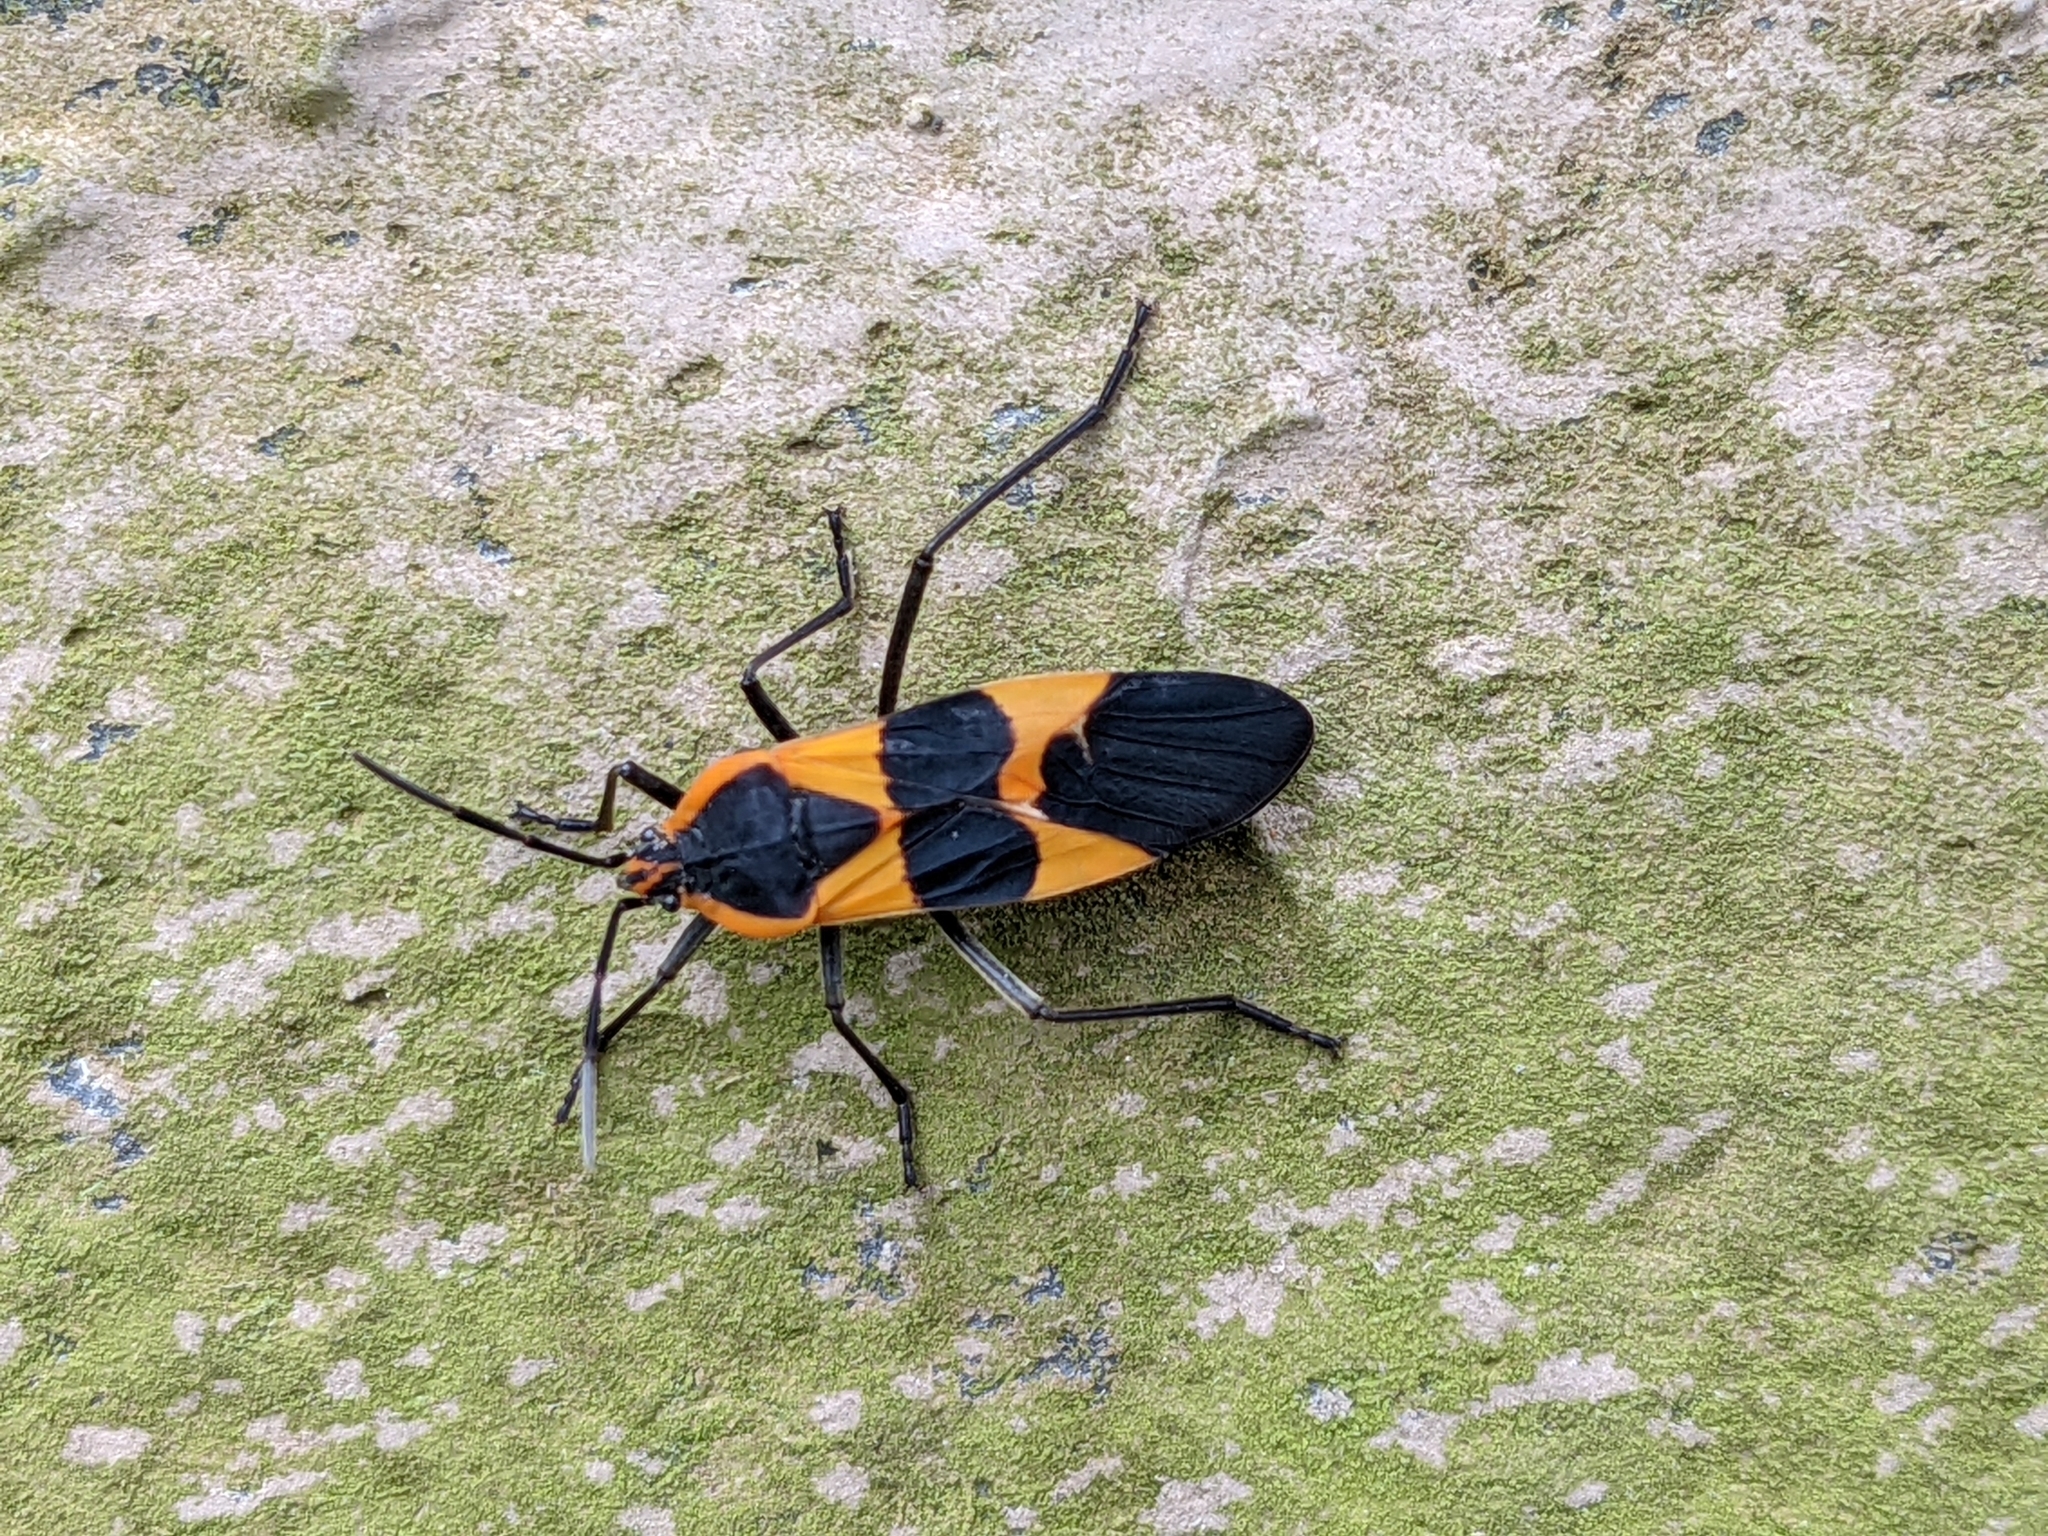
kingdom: Animalia
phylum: Arthropoda
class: Insecta
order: Hemiptera
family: Lygaeidae
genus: Oncopeltus
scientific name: Oncopeltus fasciatus
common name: Large milkweed bug
